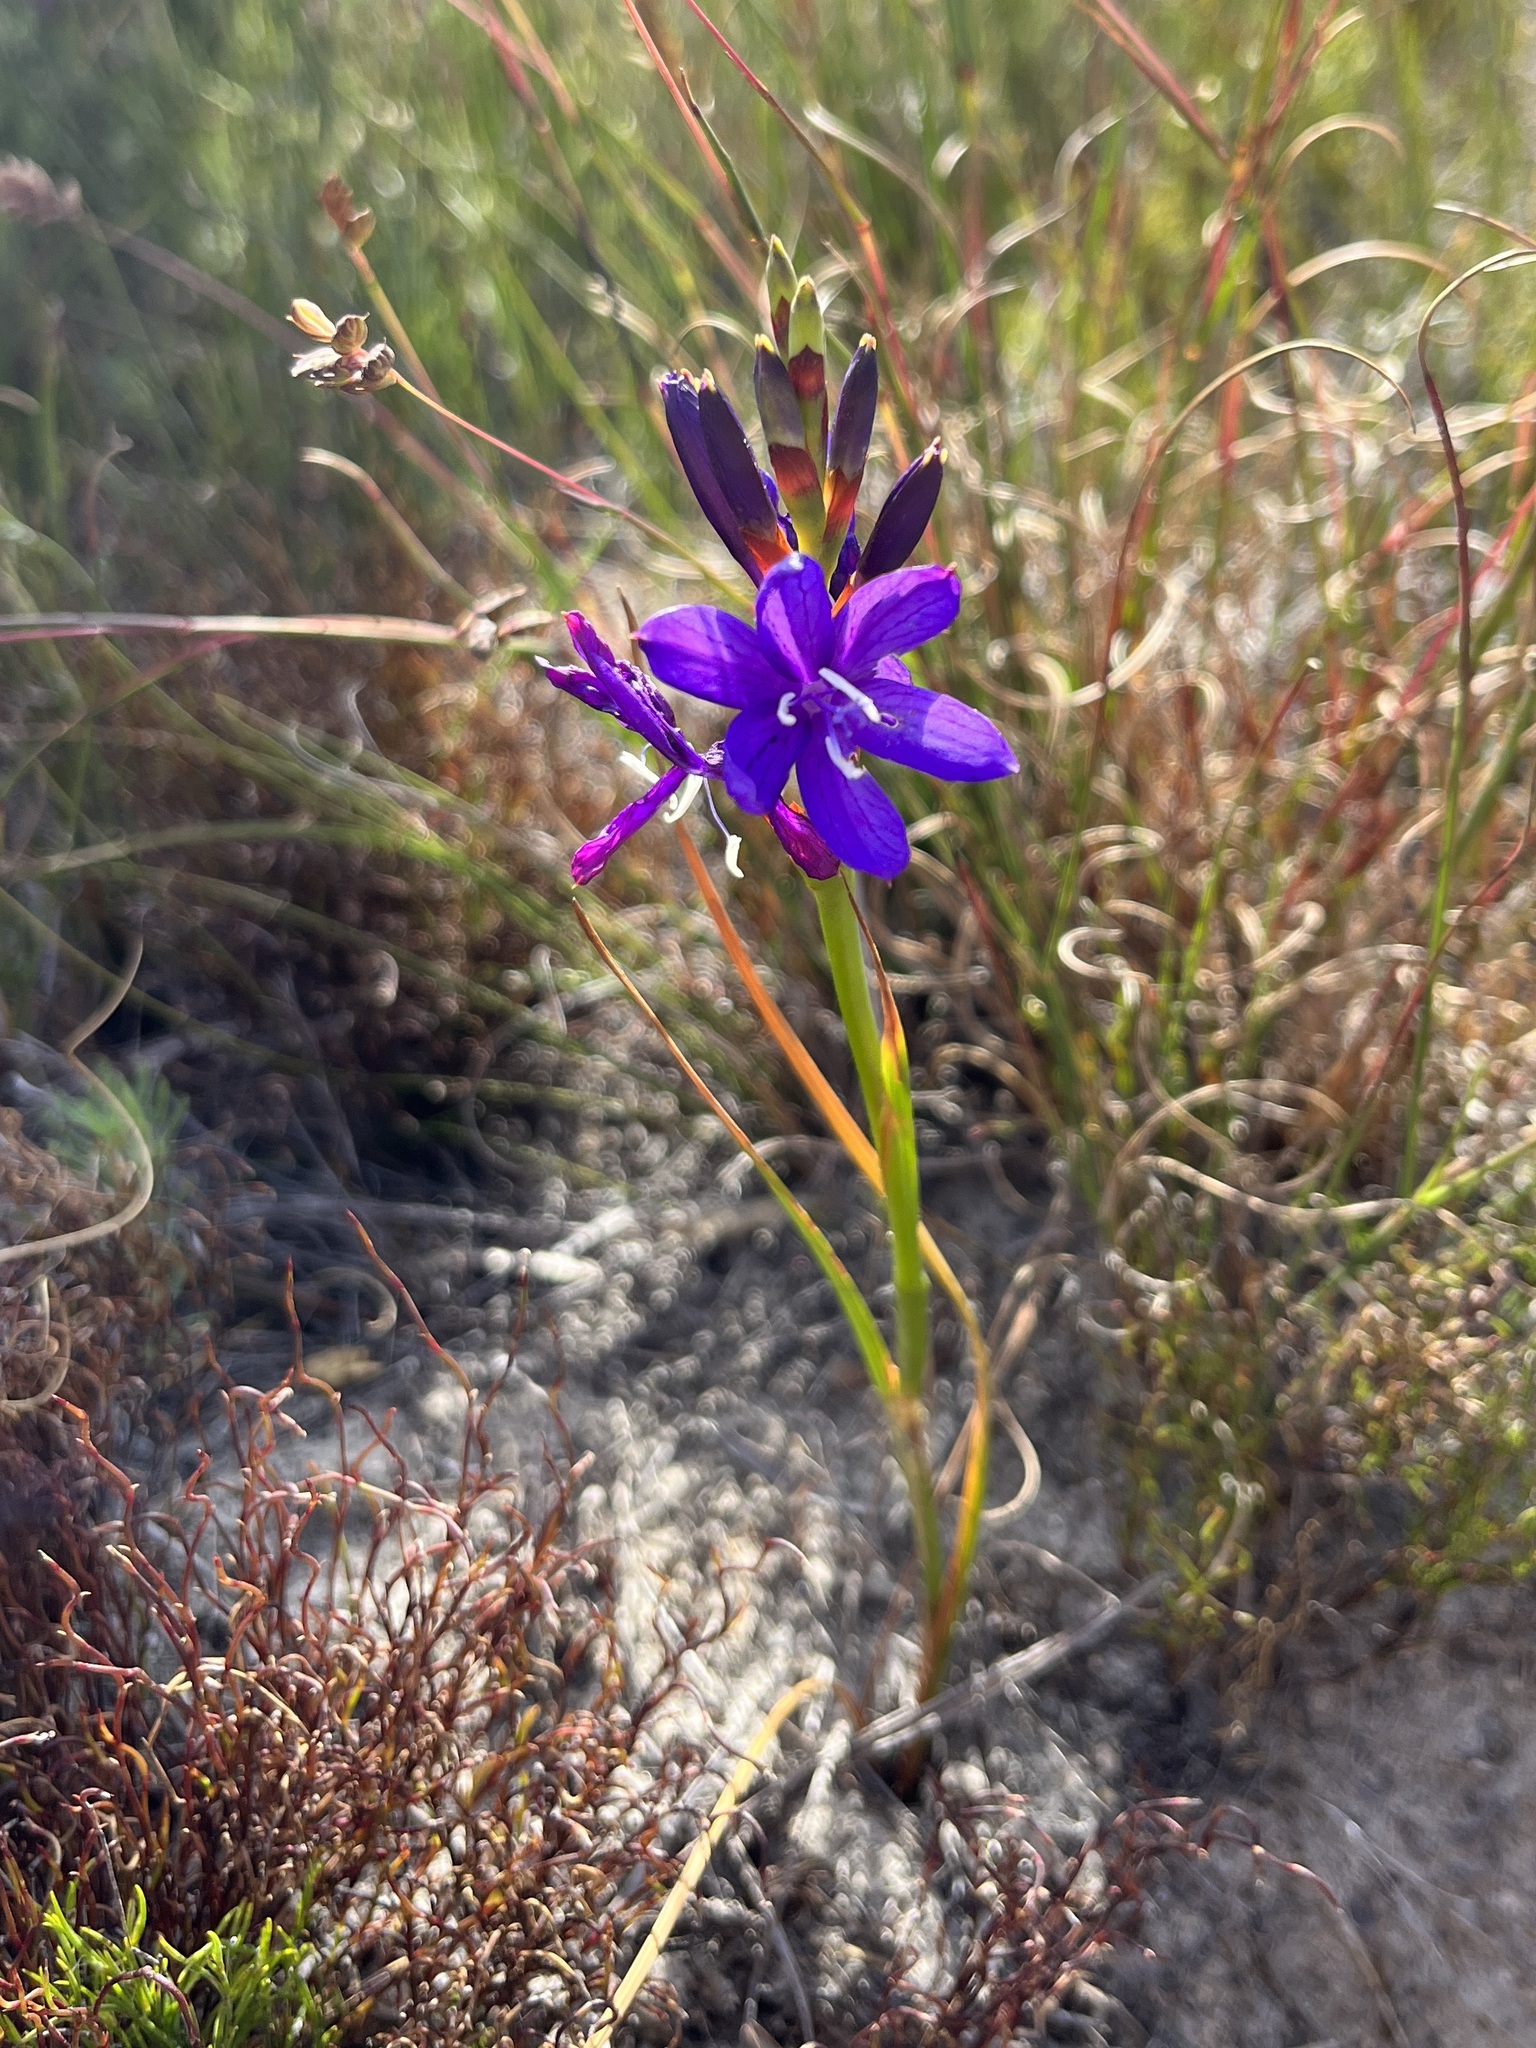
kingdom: Plantae
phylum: Tracheophyta
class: Liliopsida
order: Asparagales
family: Iridaceae
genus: Thereianthus
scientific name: Thereianthus bracteolatus
